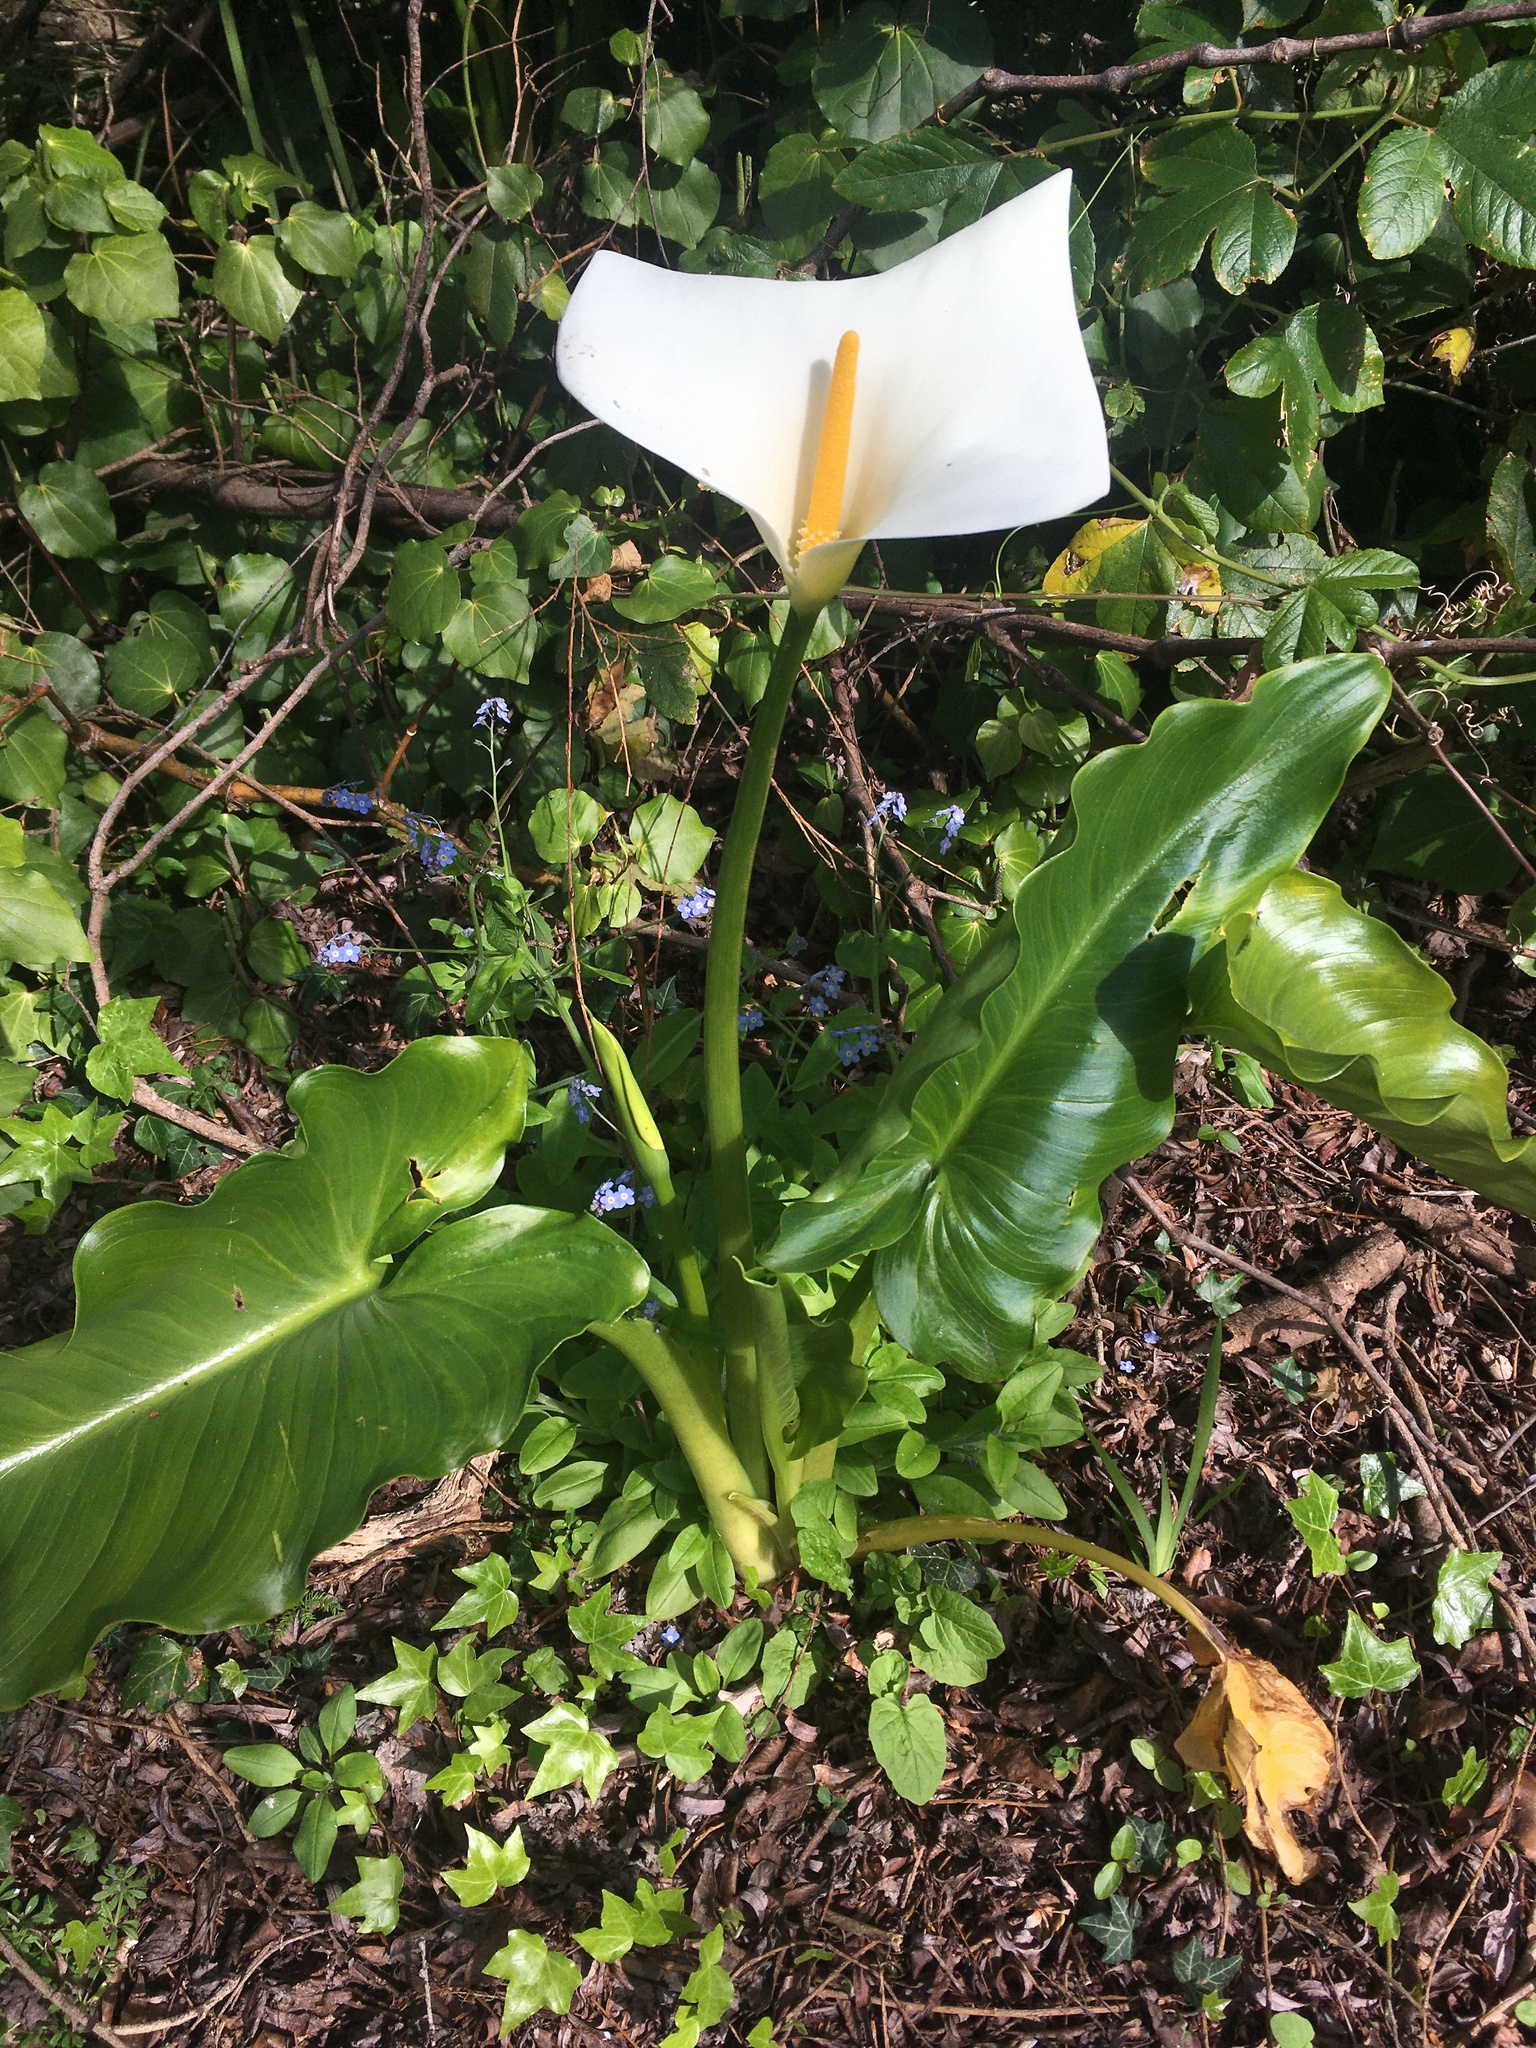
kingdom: Plantae
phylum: Tracheophyta
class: Liliopsida
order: Alismatales
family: Araceae
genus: Zantedeschia
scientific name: Zantedeschia aethiopica
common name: Altar-lily
